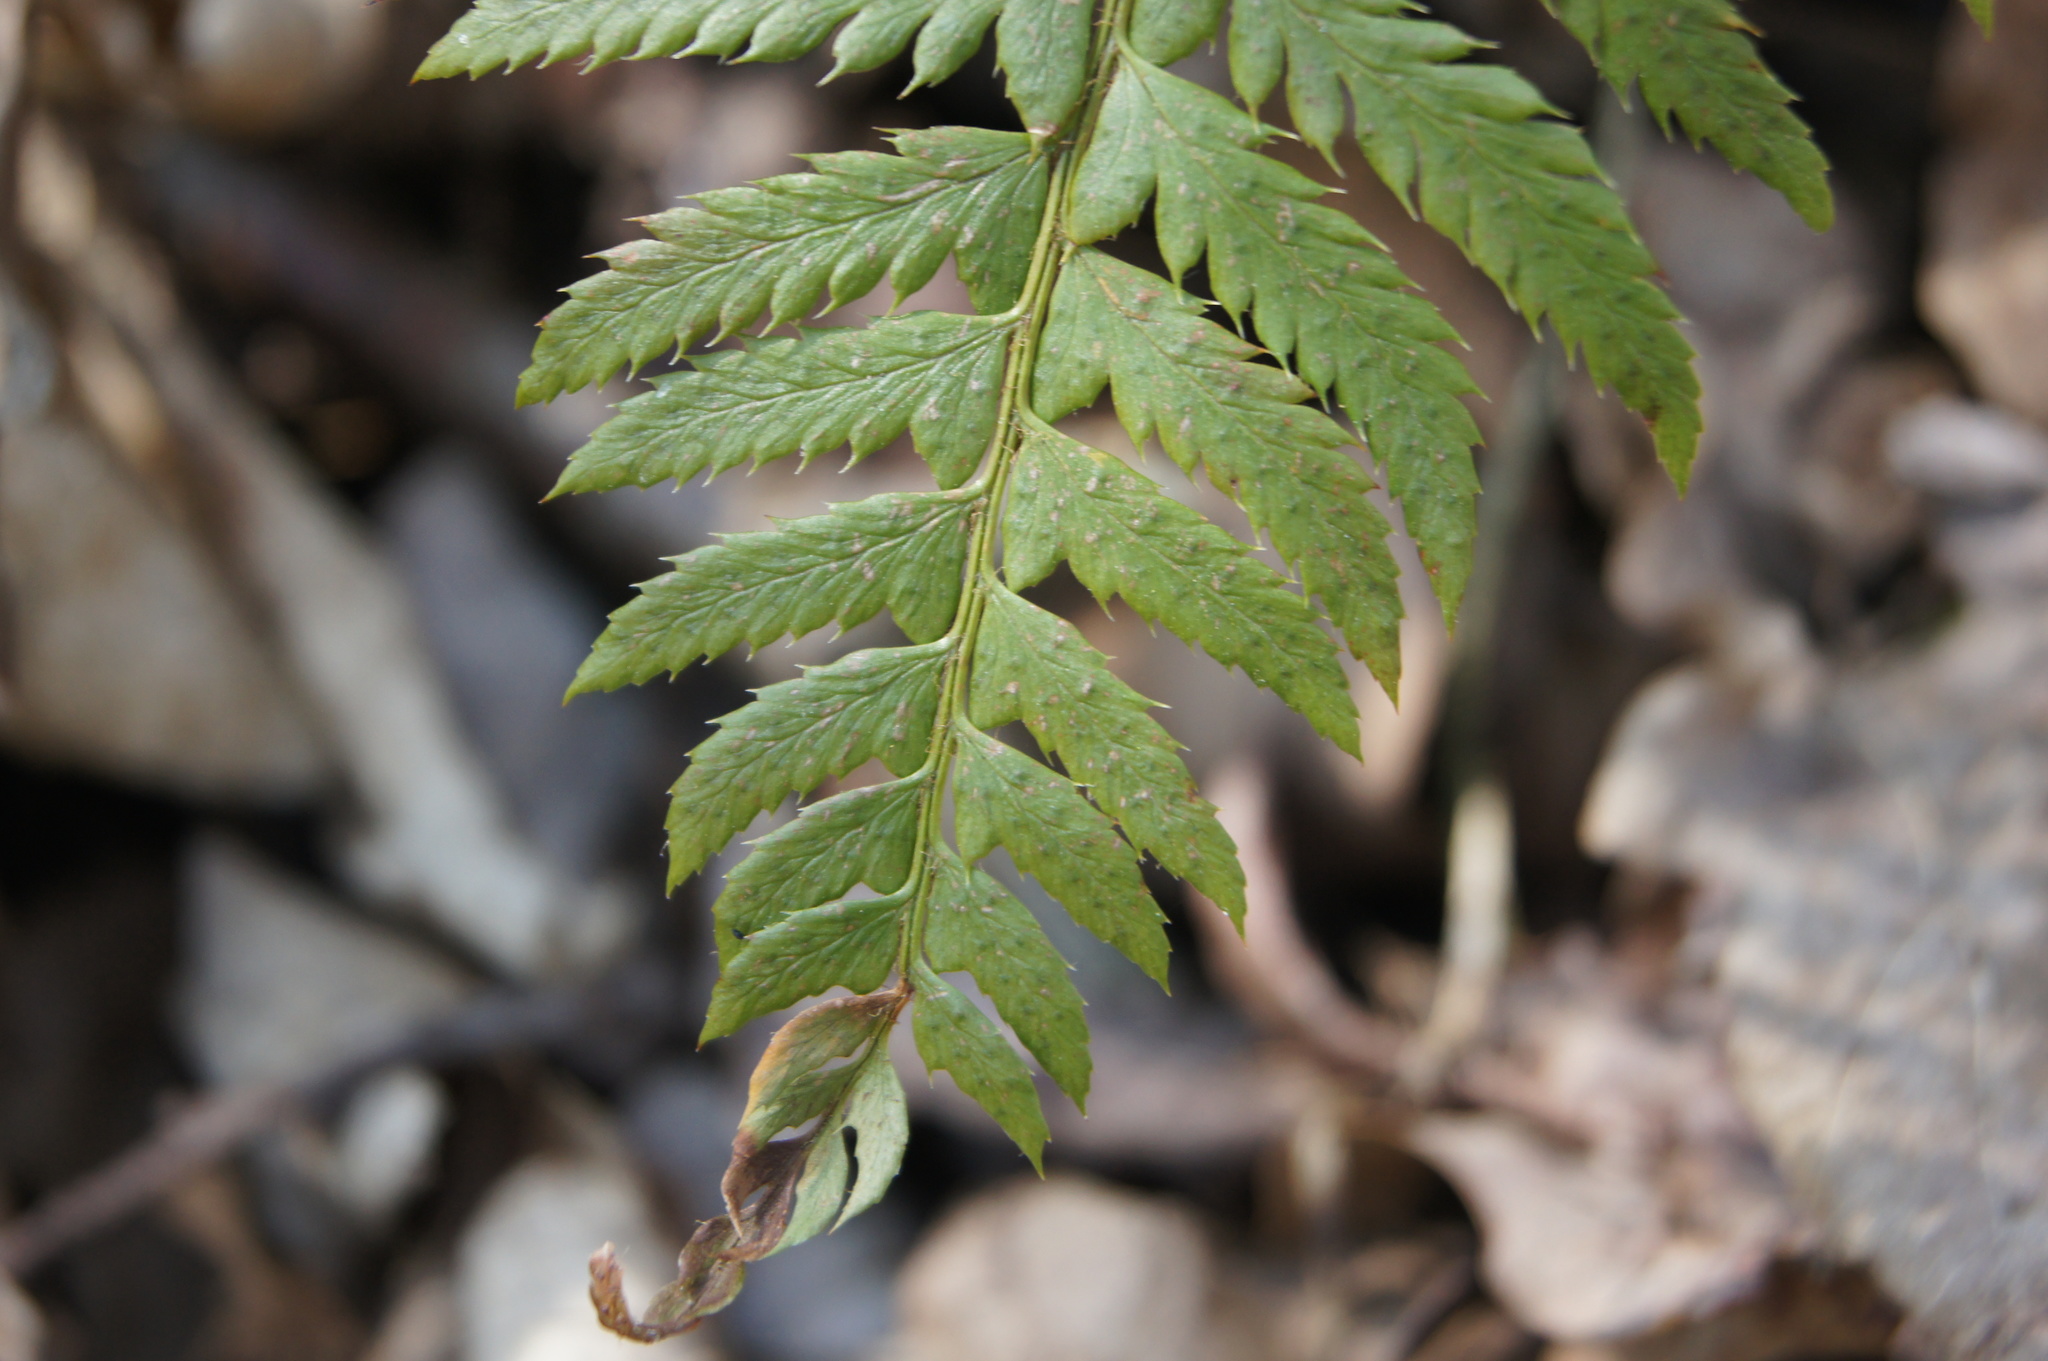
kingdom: Plantae
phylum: Tracheophyta
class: Polypodiopsida
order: Polypodiales
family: Dryopteridaceae
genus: Polystichum
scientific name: Polystichum aculeatum
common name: Hard shield-fern
